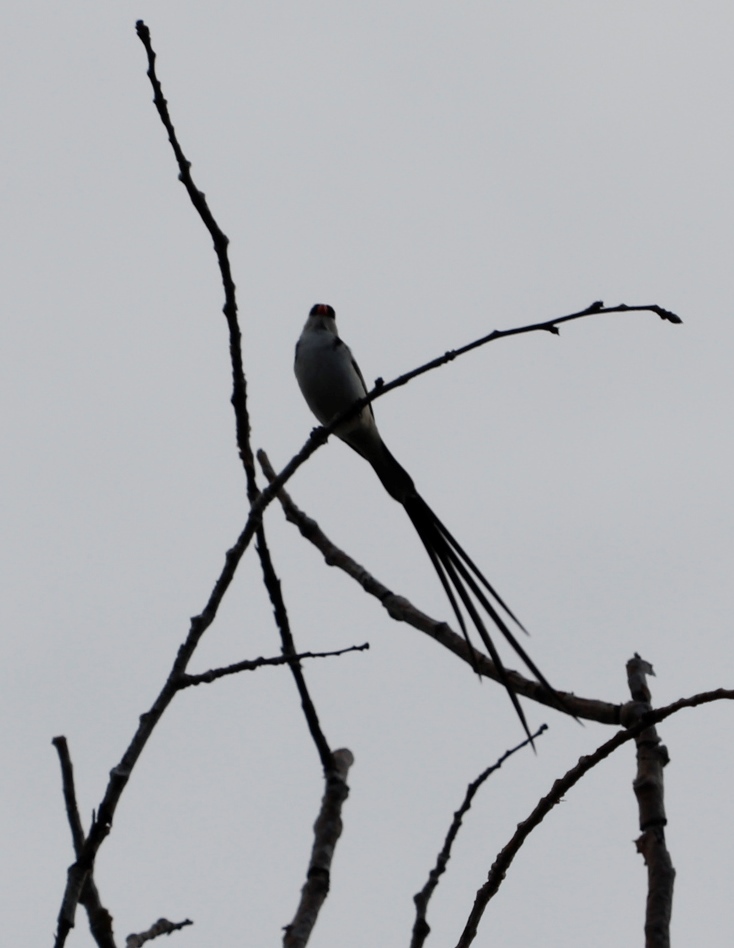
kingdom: Animalia
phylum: Chordata
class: Aves
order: Passeriformes
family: Viduidae
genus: Vidua
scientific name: Vidua macroura
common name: Pin-tailed whydah
